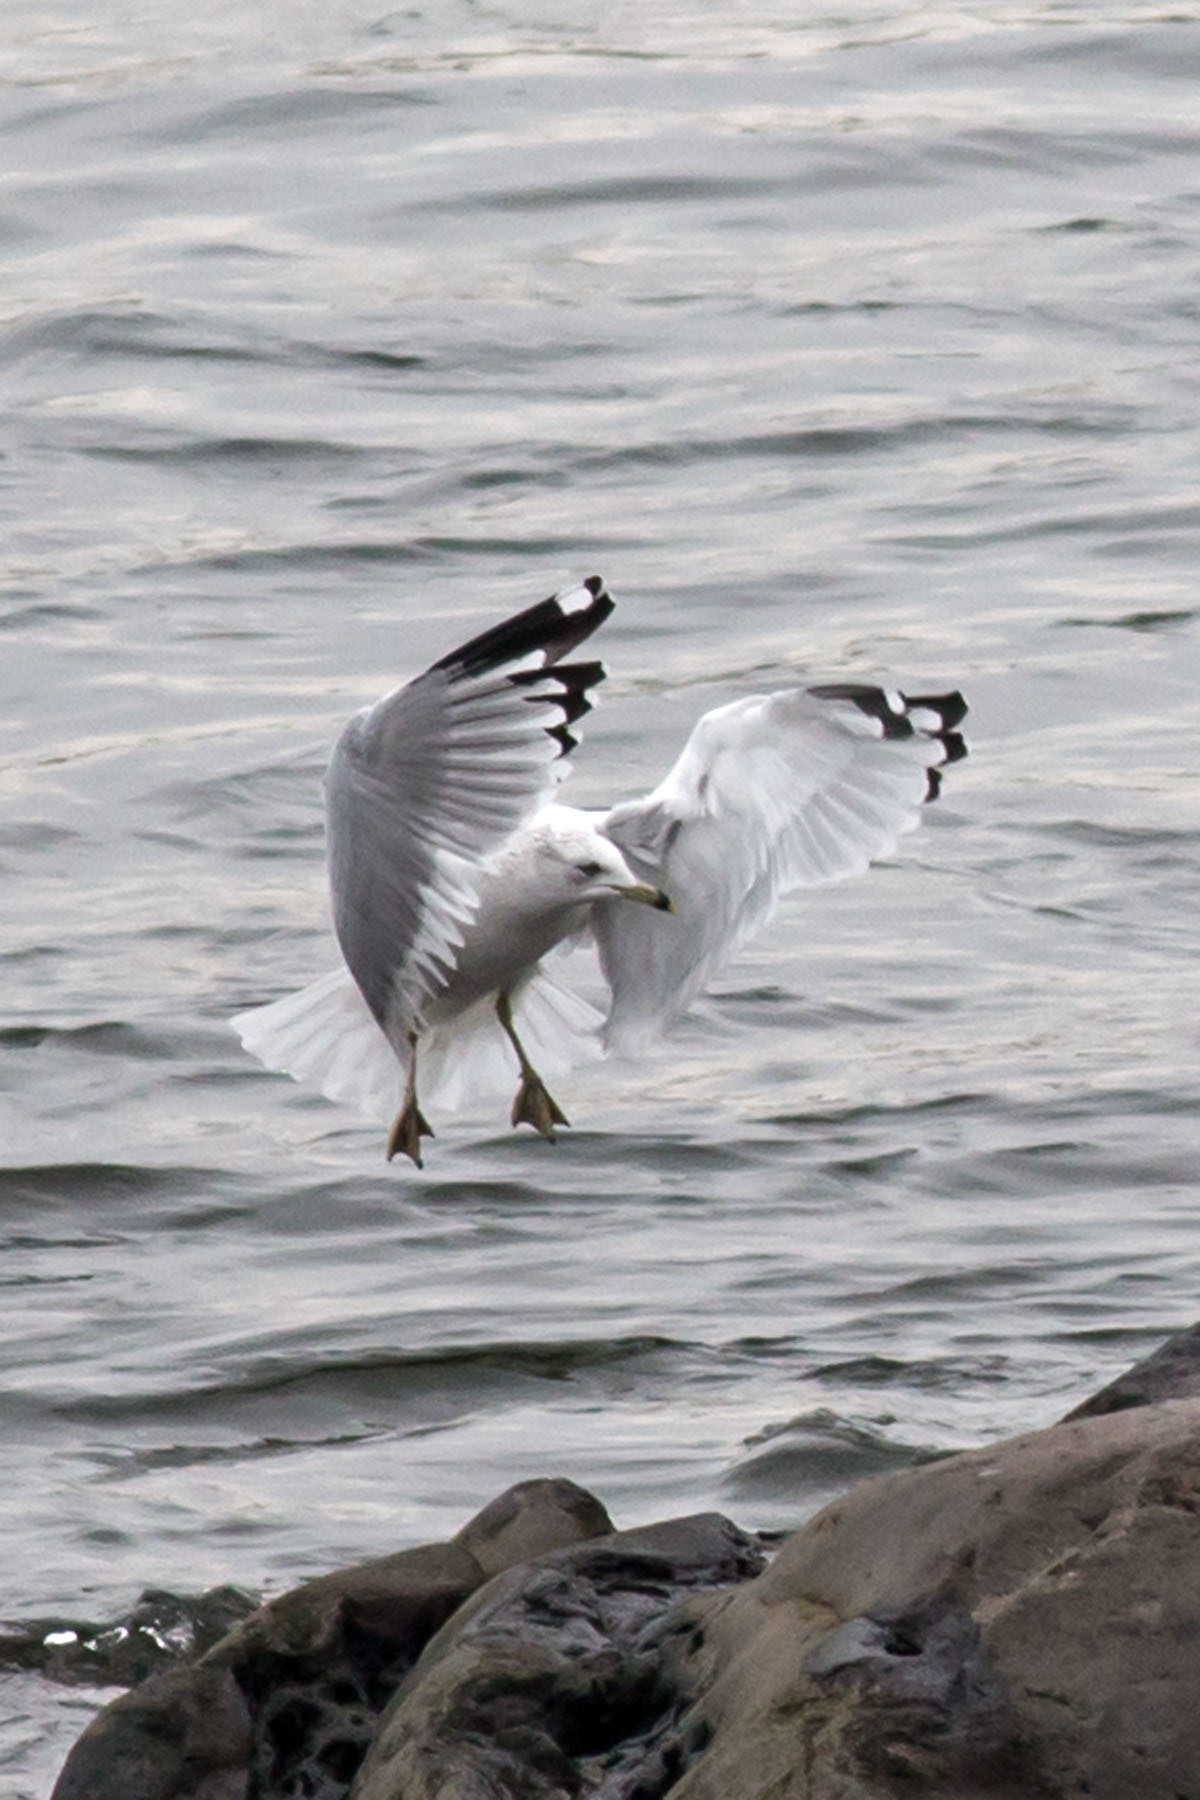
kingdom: Animalia
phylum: Chordata
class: Aves
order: Charadriiformes
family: Laridae
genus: Larus
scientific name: Larus delawarensis
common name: Ring-billed gull
